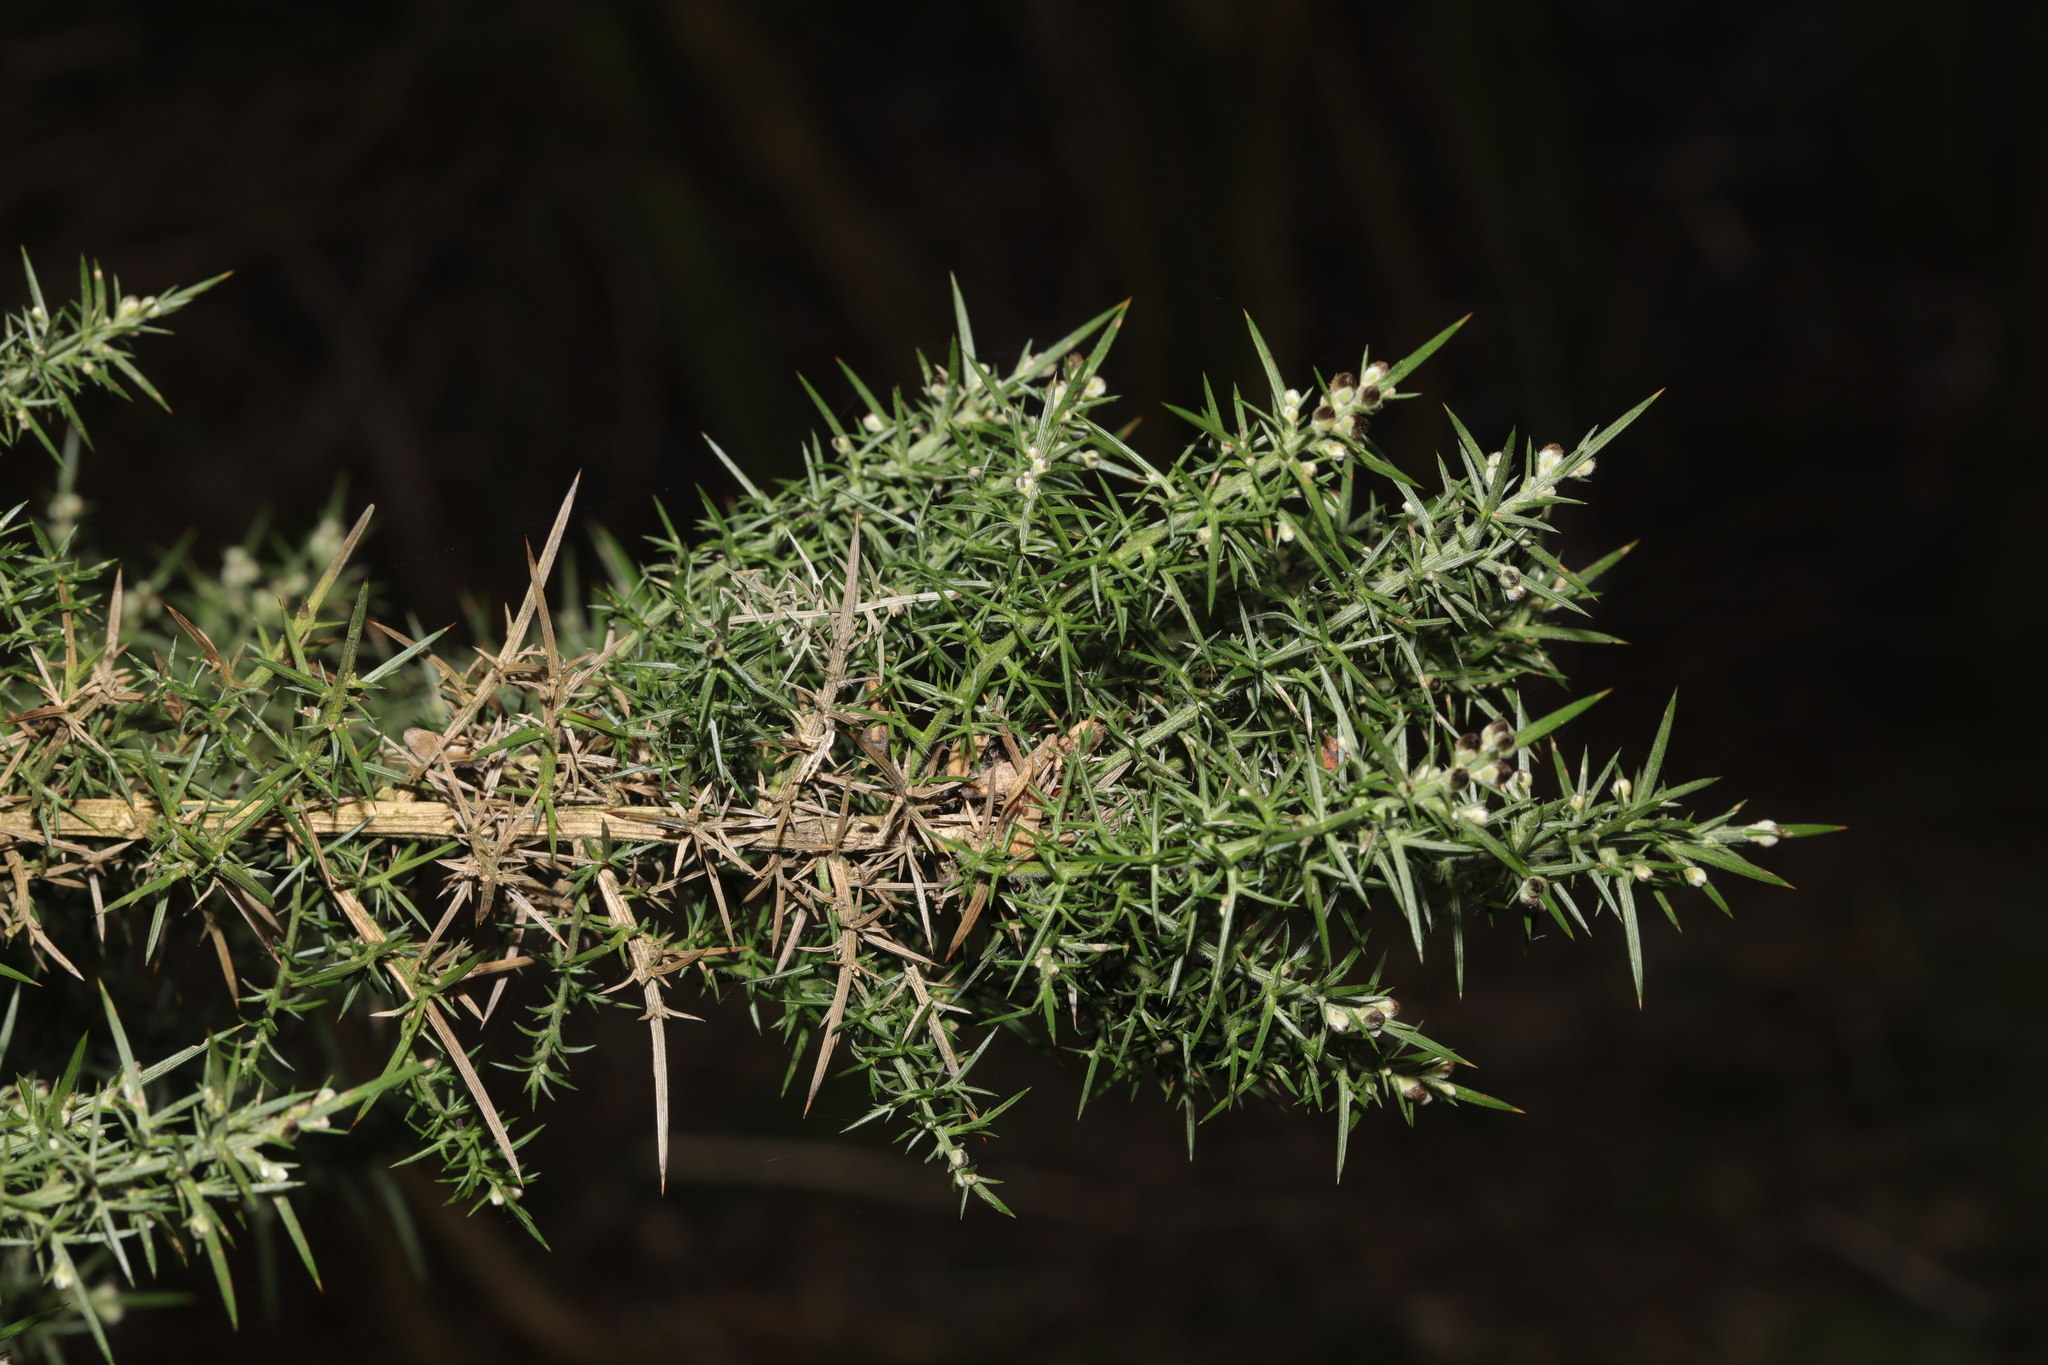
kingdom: Plantae
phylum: Tracheophyta
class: Magnoliopsida
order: Fabales
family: Fabaceae
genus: Ulex
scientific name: Ulex europaeus
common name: Common gorse
